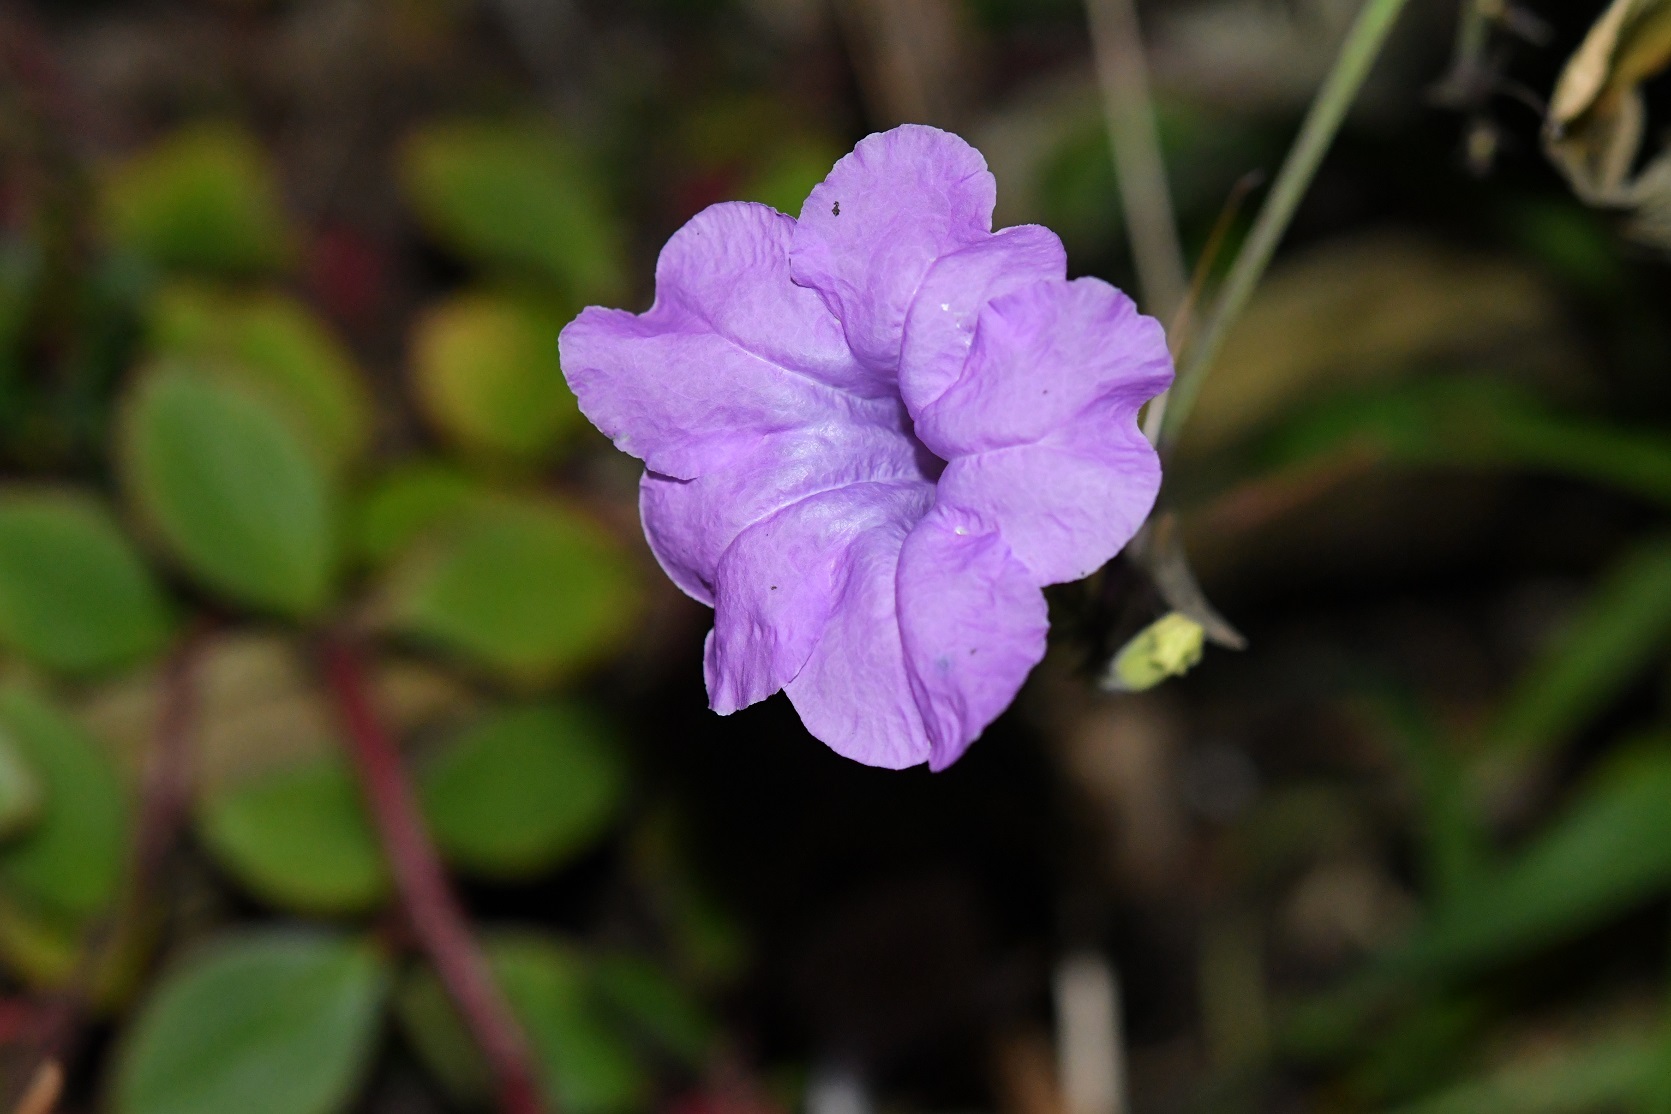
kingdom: Plantae
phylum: Tracheophyta
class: Magnoliopsida
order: Lamiales
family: Acanthaceae
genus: Ruellia
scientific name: Ruellia breedlovei
